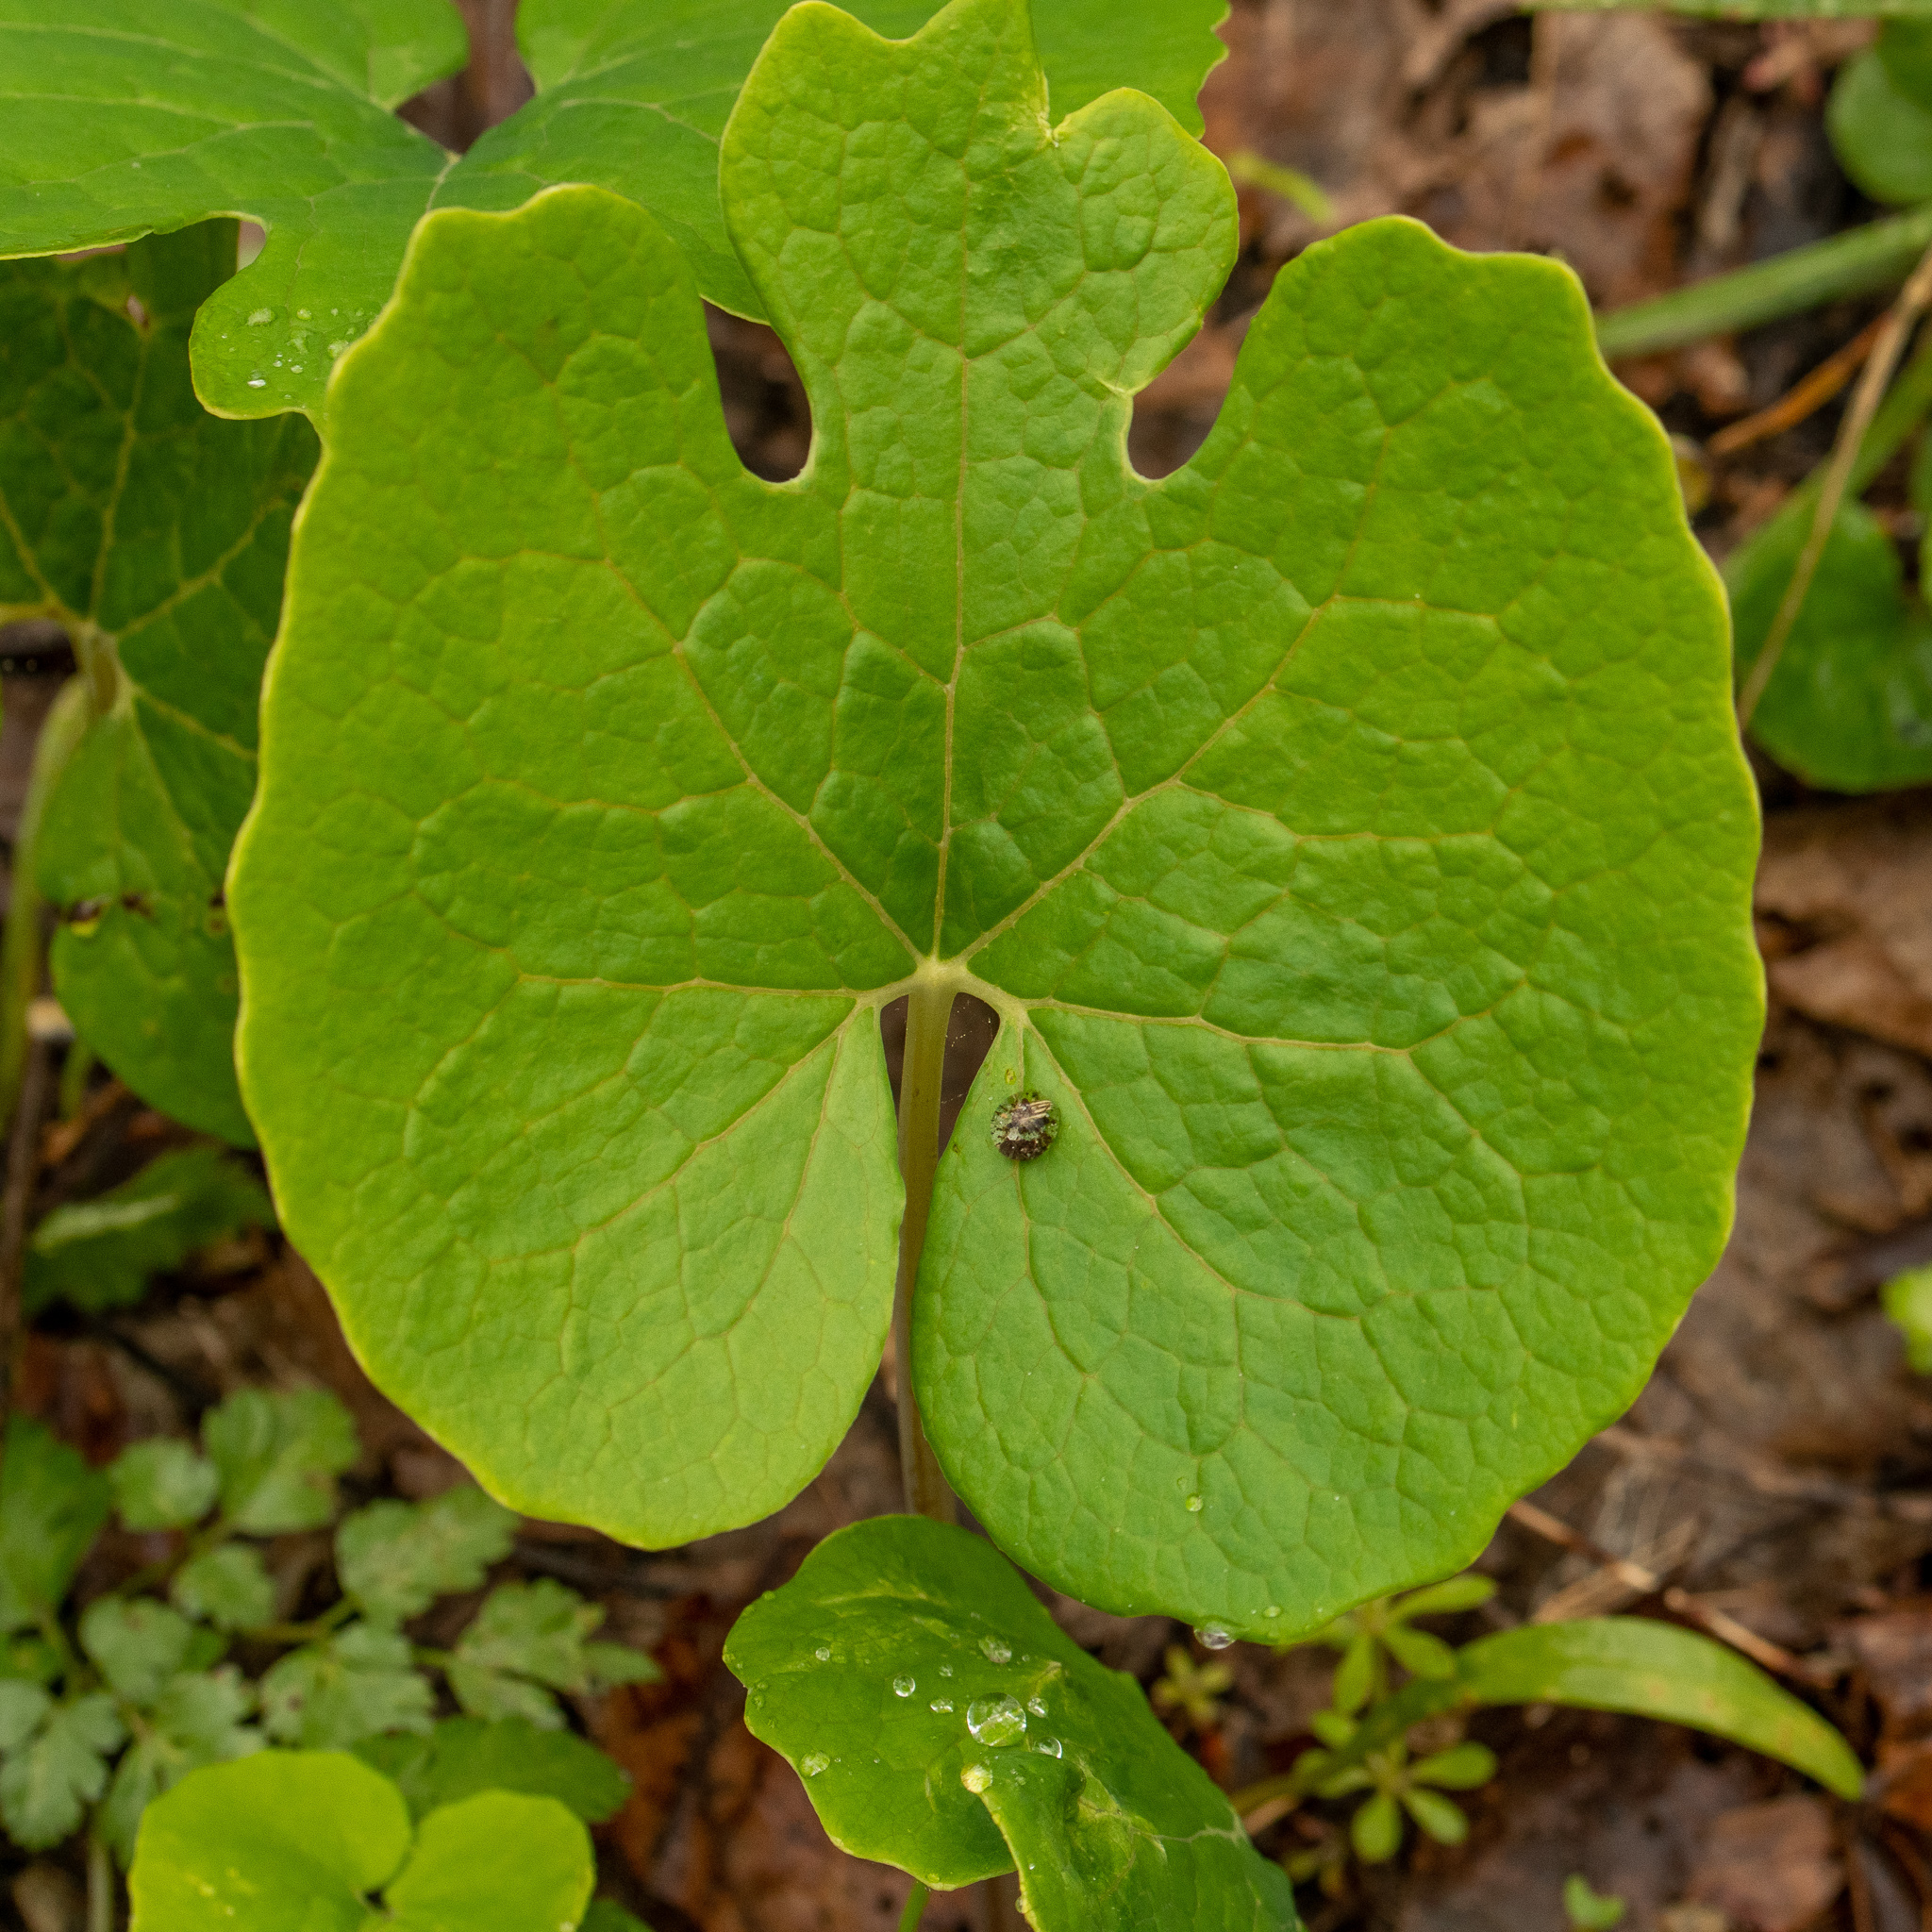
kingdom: Plantae
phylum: Tracheophyta
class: Magnoliopsida
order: Ranunculales
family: Papaveraceae
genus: Sanguinaria
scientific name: Sanguinaria canadensis
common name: Bloodroot
